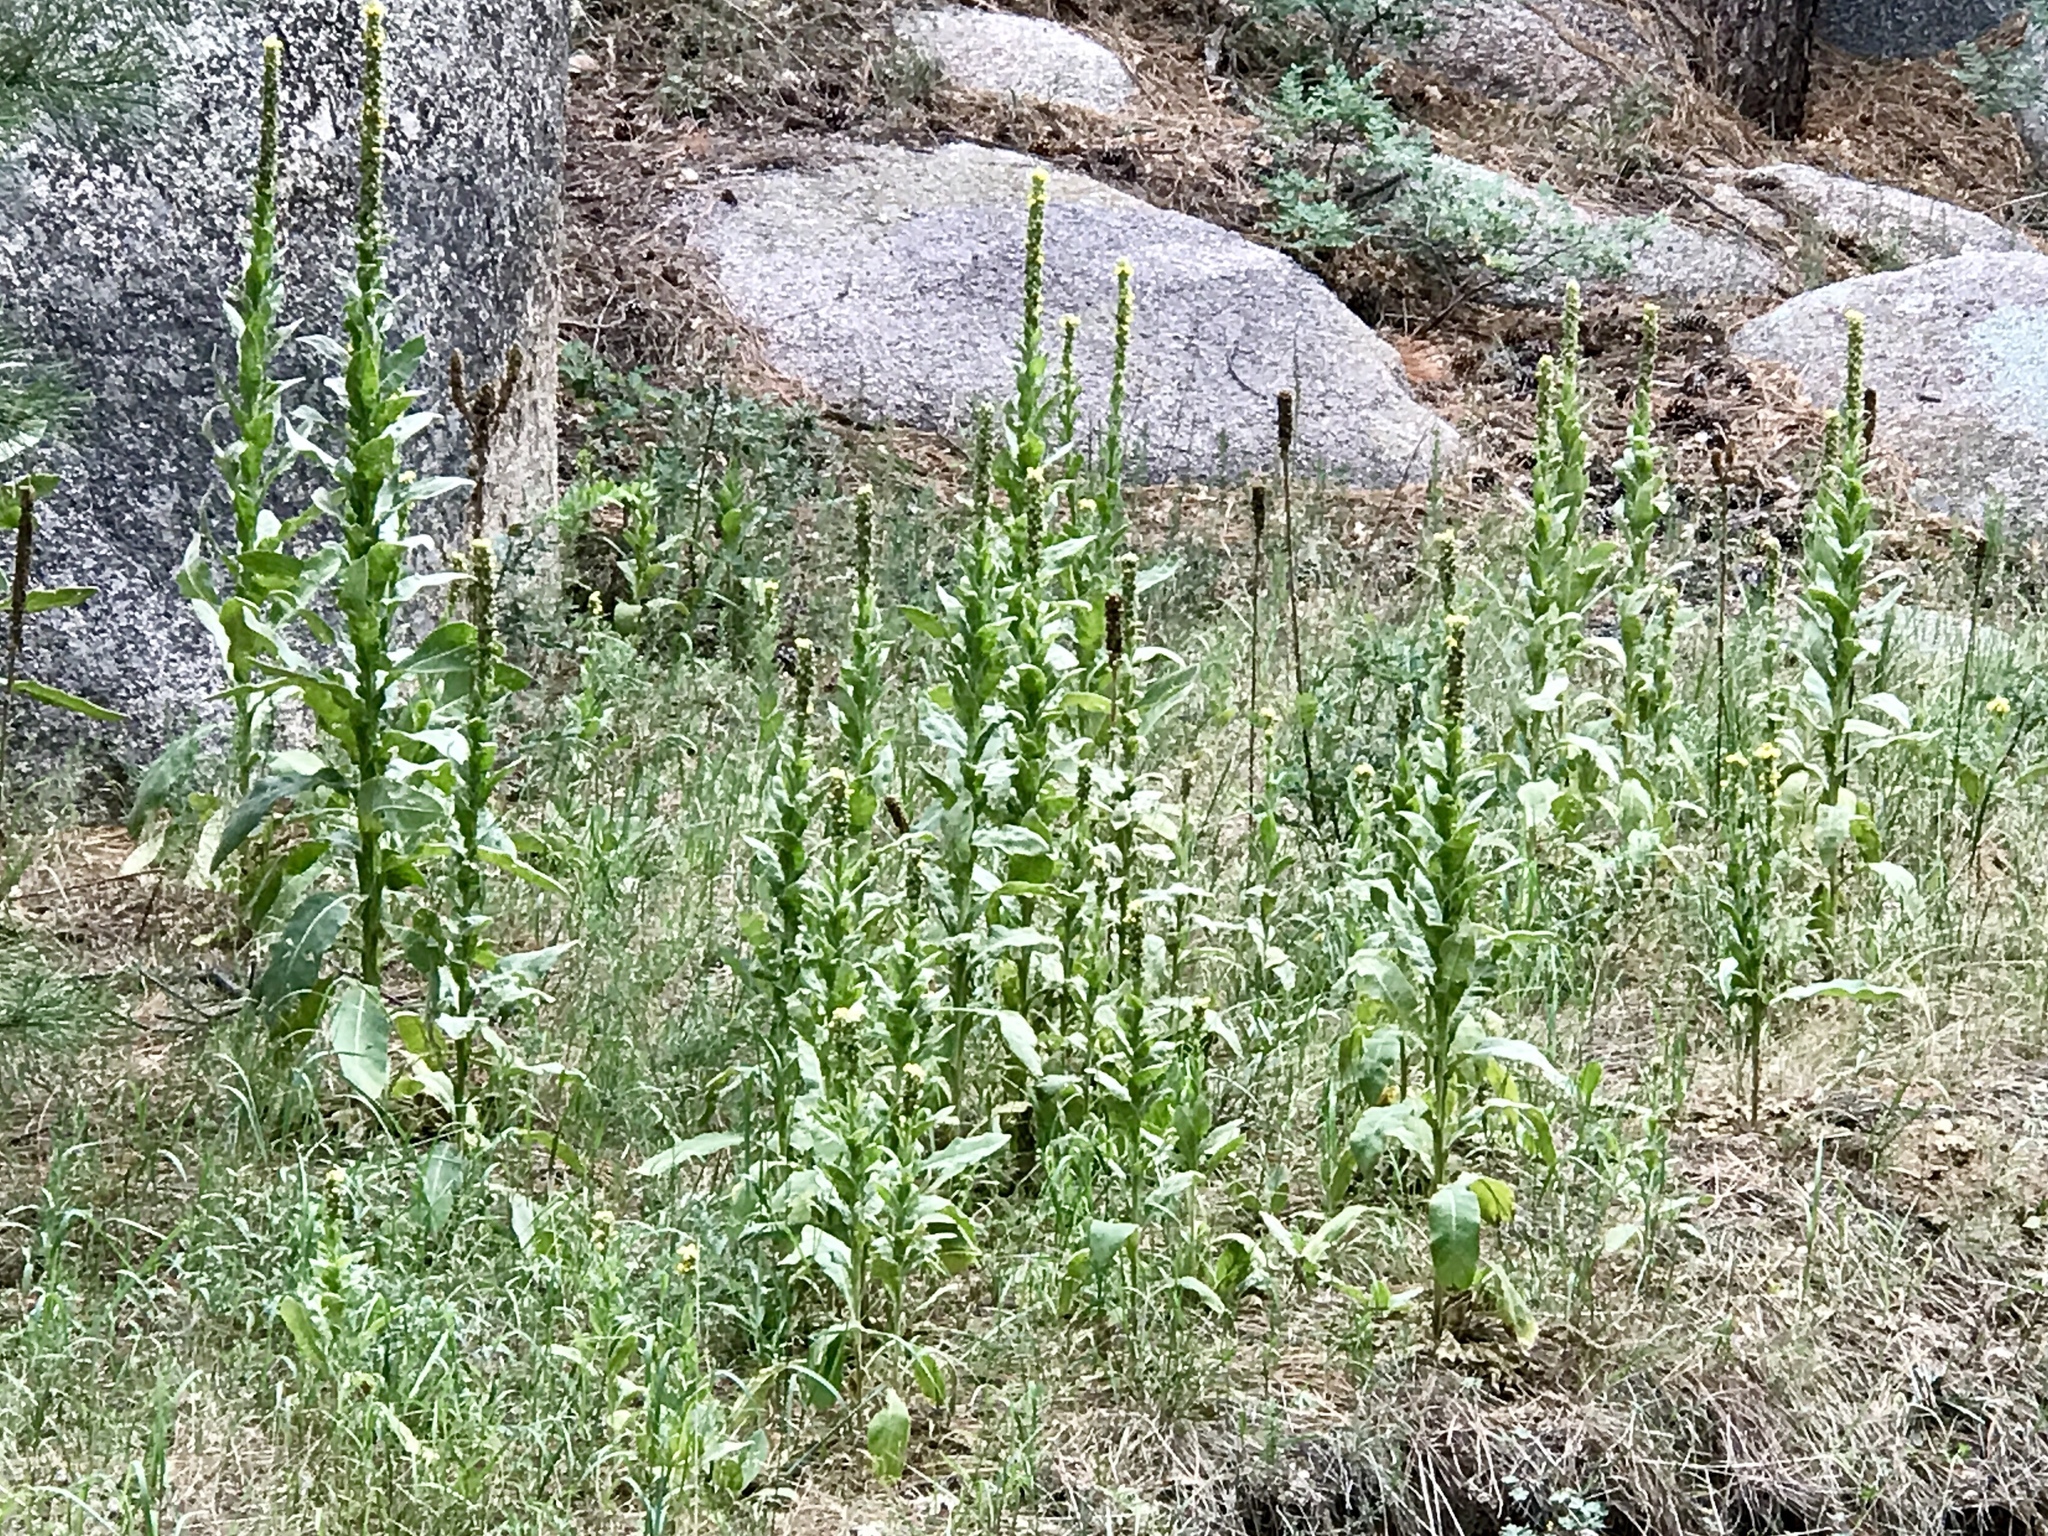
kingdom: Plantae
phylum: Tracheophyta
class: Magnoliopsida
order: Lamiales
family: Scrophulariaceae
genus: Verbascum
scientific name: Verbascum thapsus
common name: Common mullein
